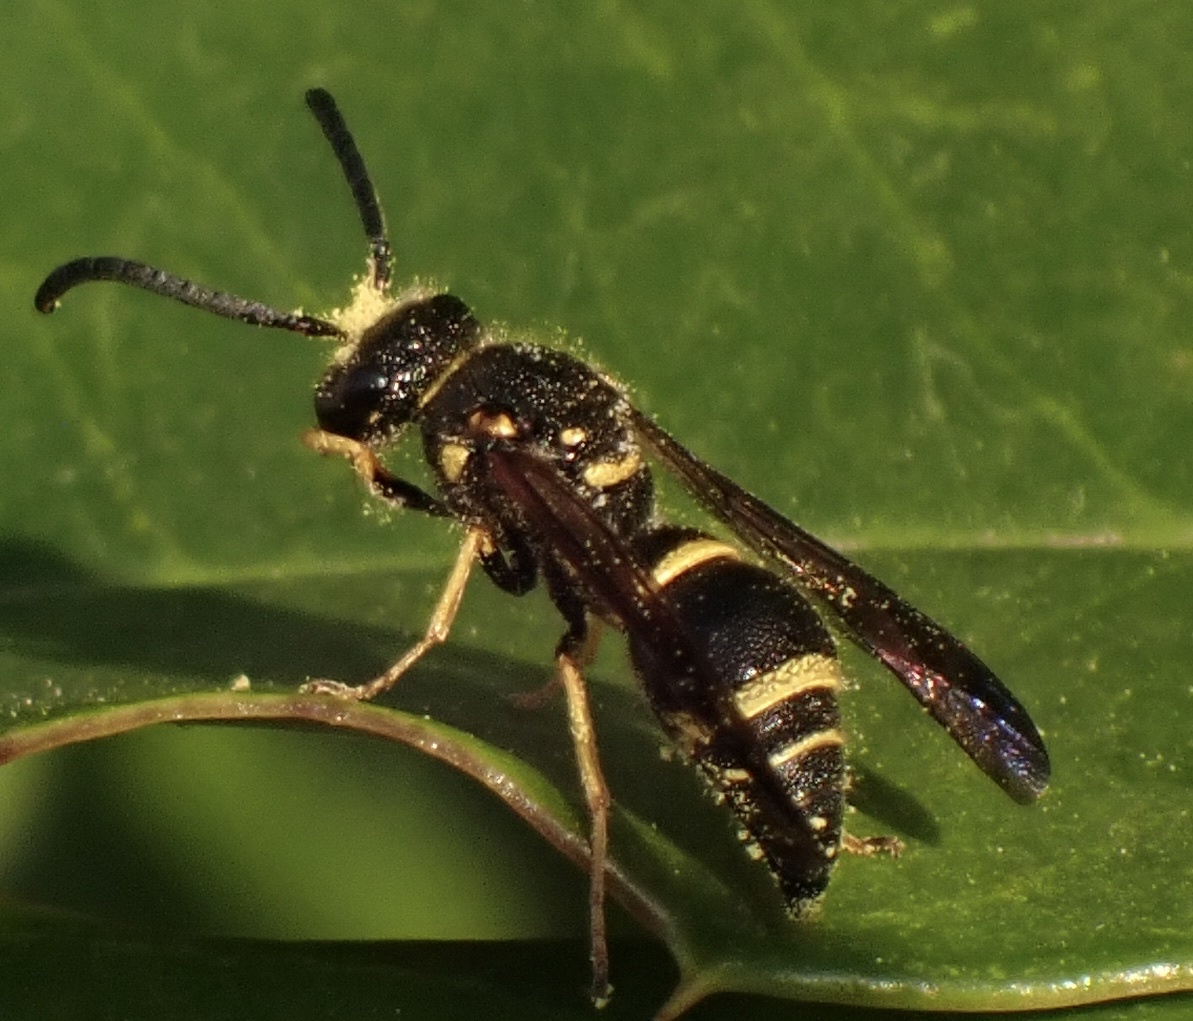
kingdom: Animalia
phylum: Arthropoda
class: Insecta
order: Hymenoptera
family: Vespidae
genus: Ancistrocerus
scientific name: Ancistrocerus campestris
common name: Smiling mason wasp
